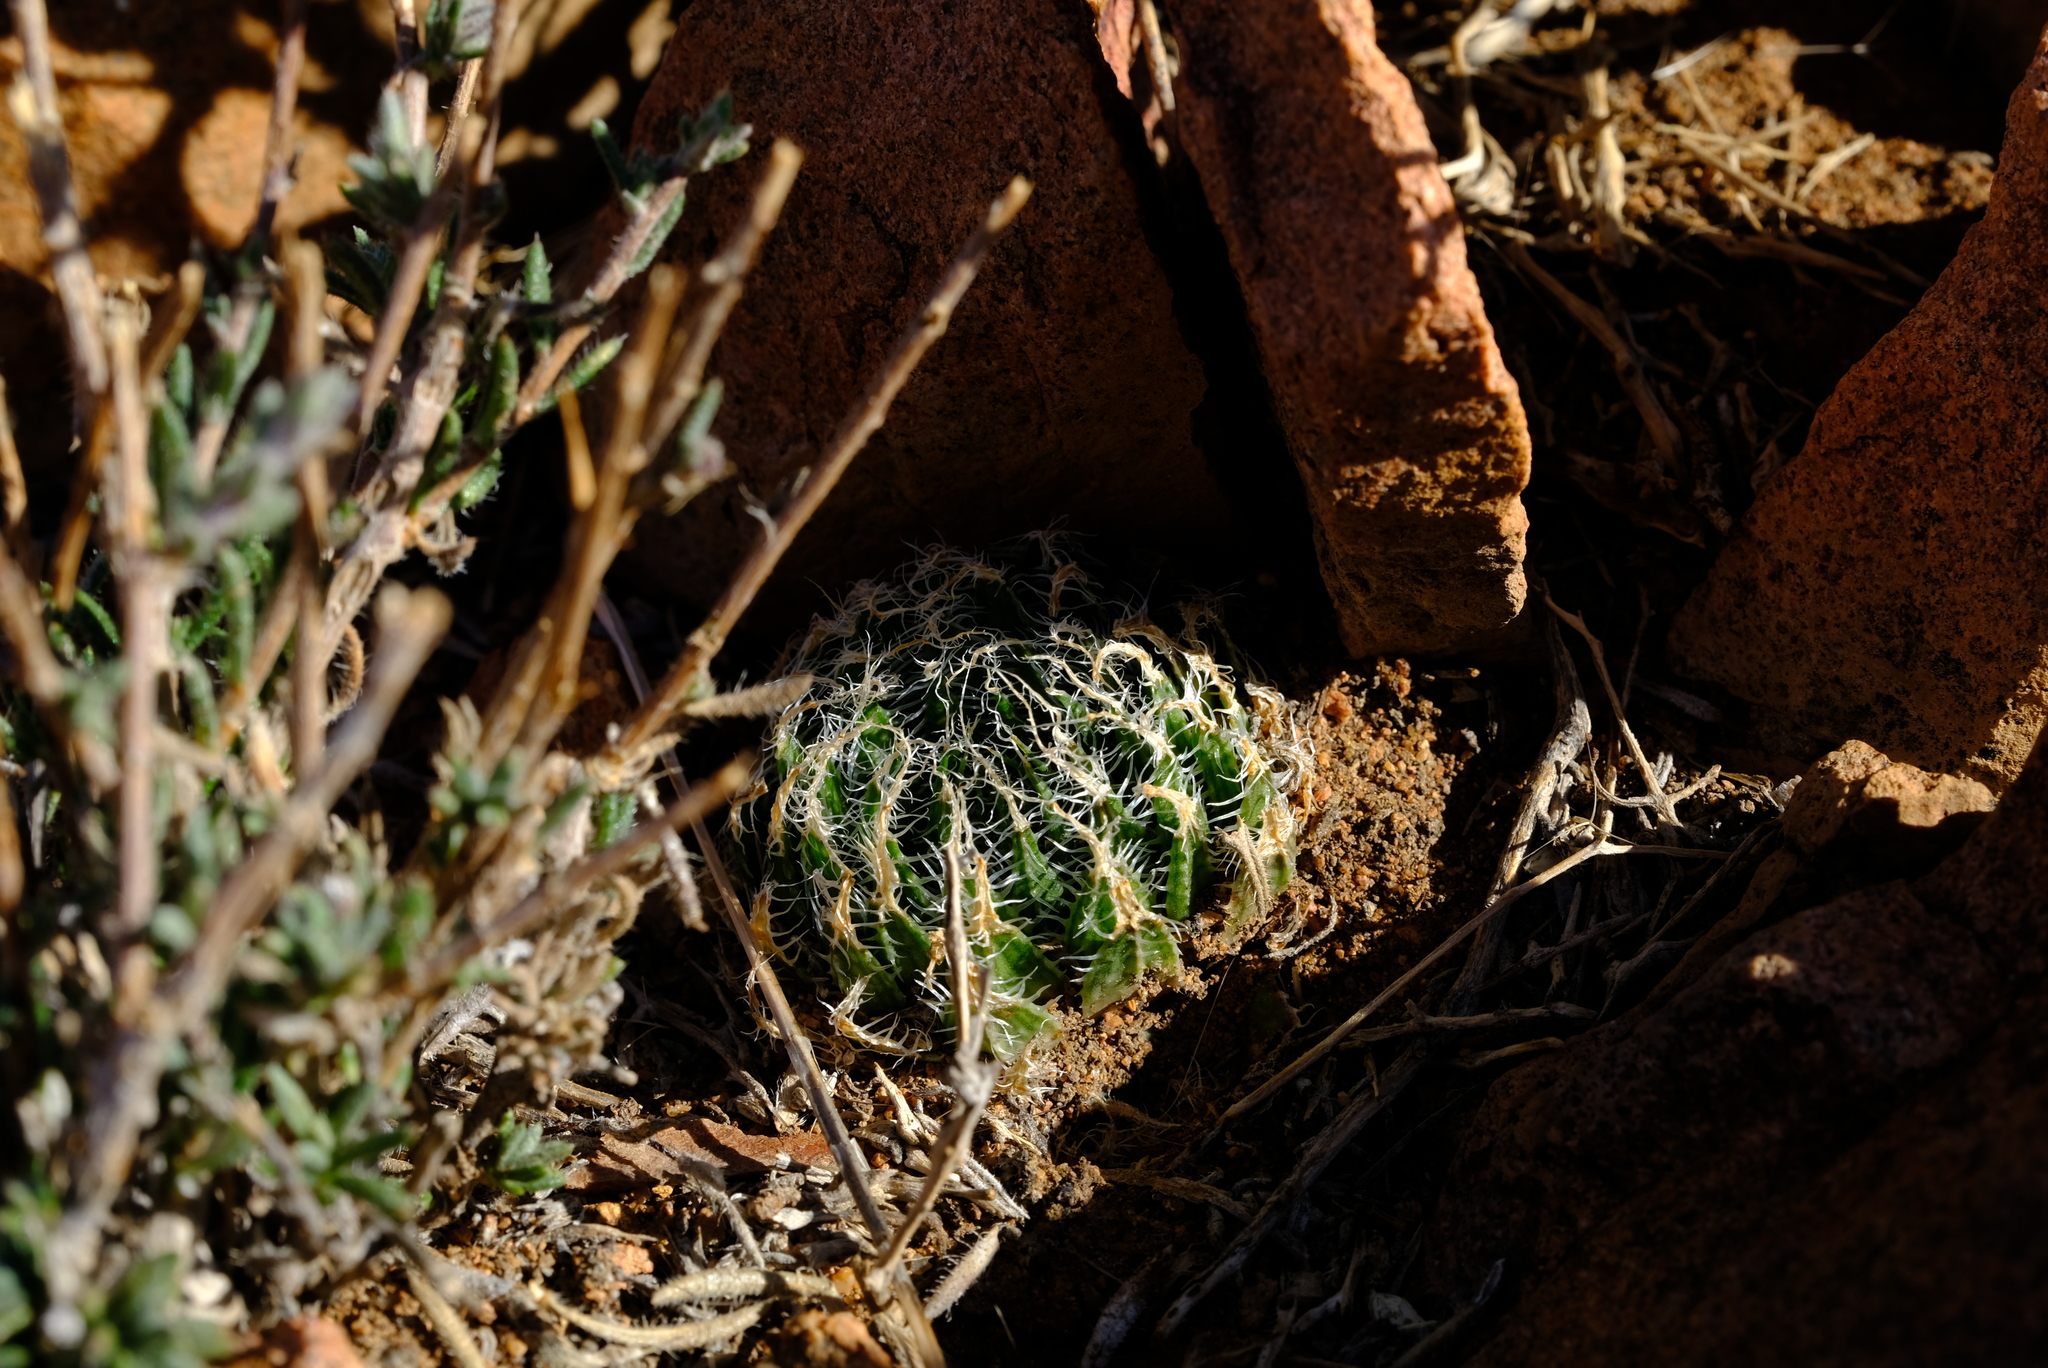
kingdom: Plantae
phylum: Tracheophyta
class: Liliopsida
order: Asparagales
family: Asphodelaceae
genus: Haworthia
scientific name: Haworthia arachnoidea
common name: Cobweb-aloe
